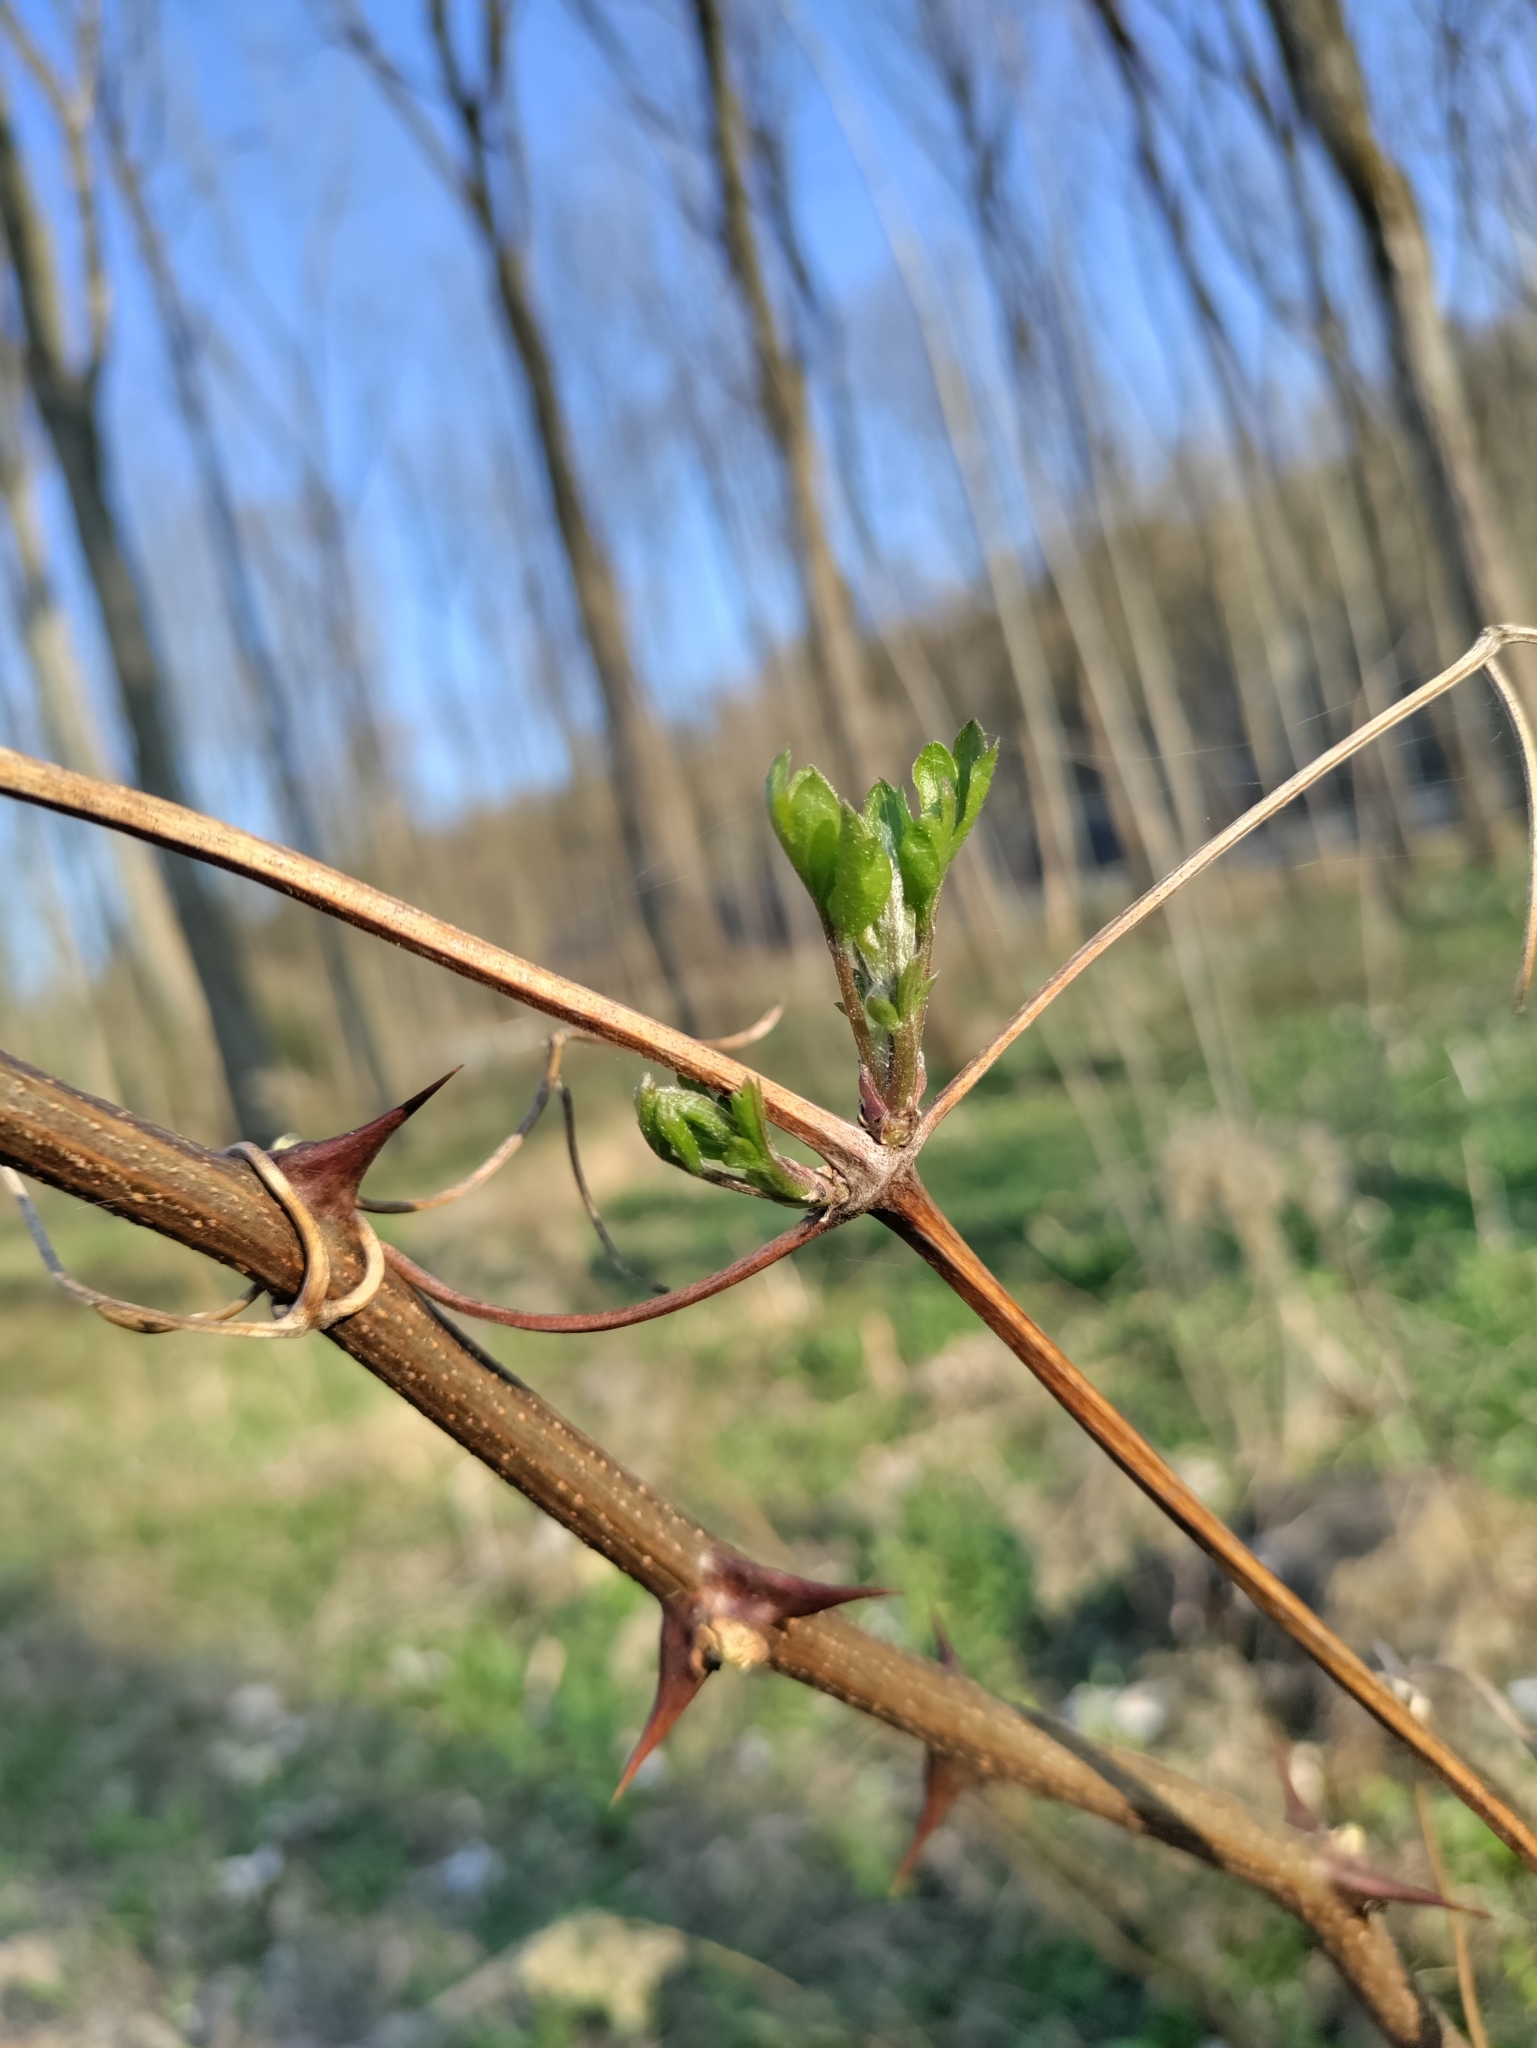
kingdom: Plantae
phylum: Tracheophyta
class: Magnoliopsida
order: Ranunculales
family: Ranunculaceae
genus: Clematis
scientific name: Clematis vitalba
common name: Evergreen clematis
